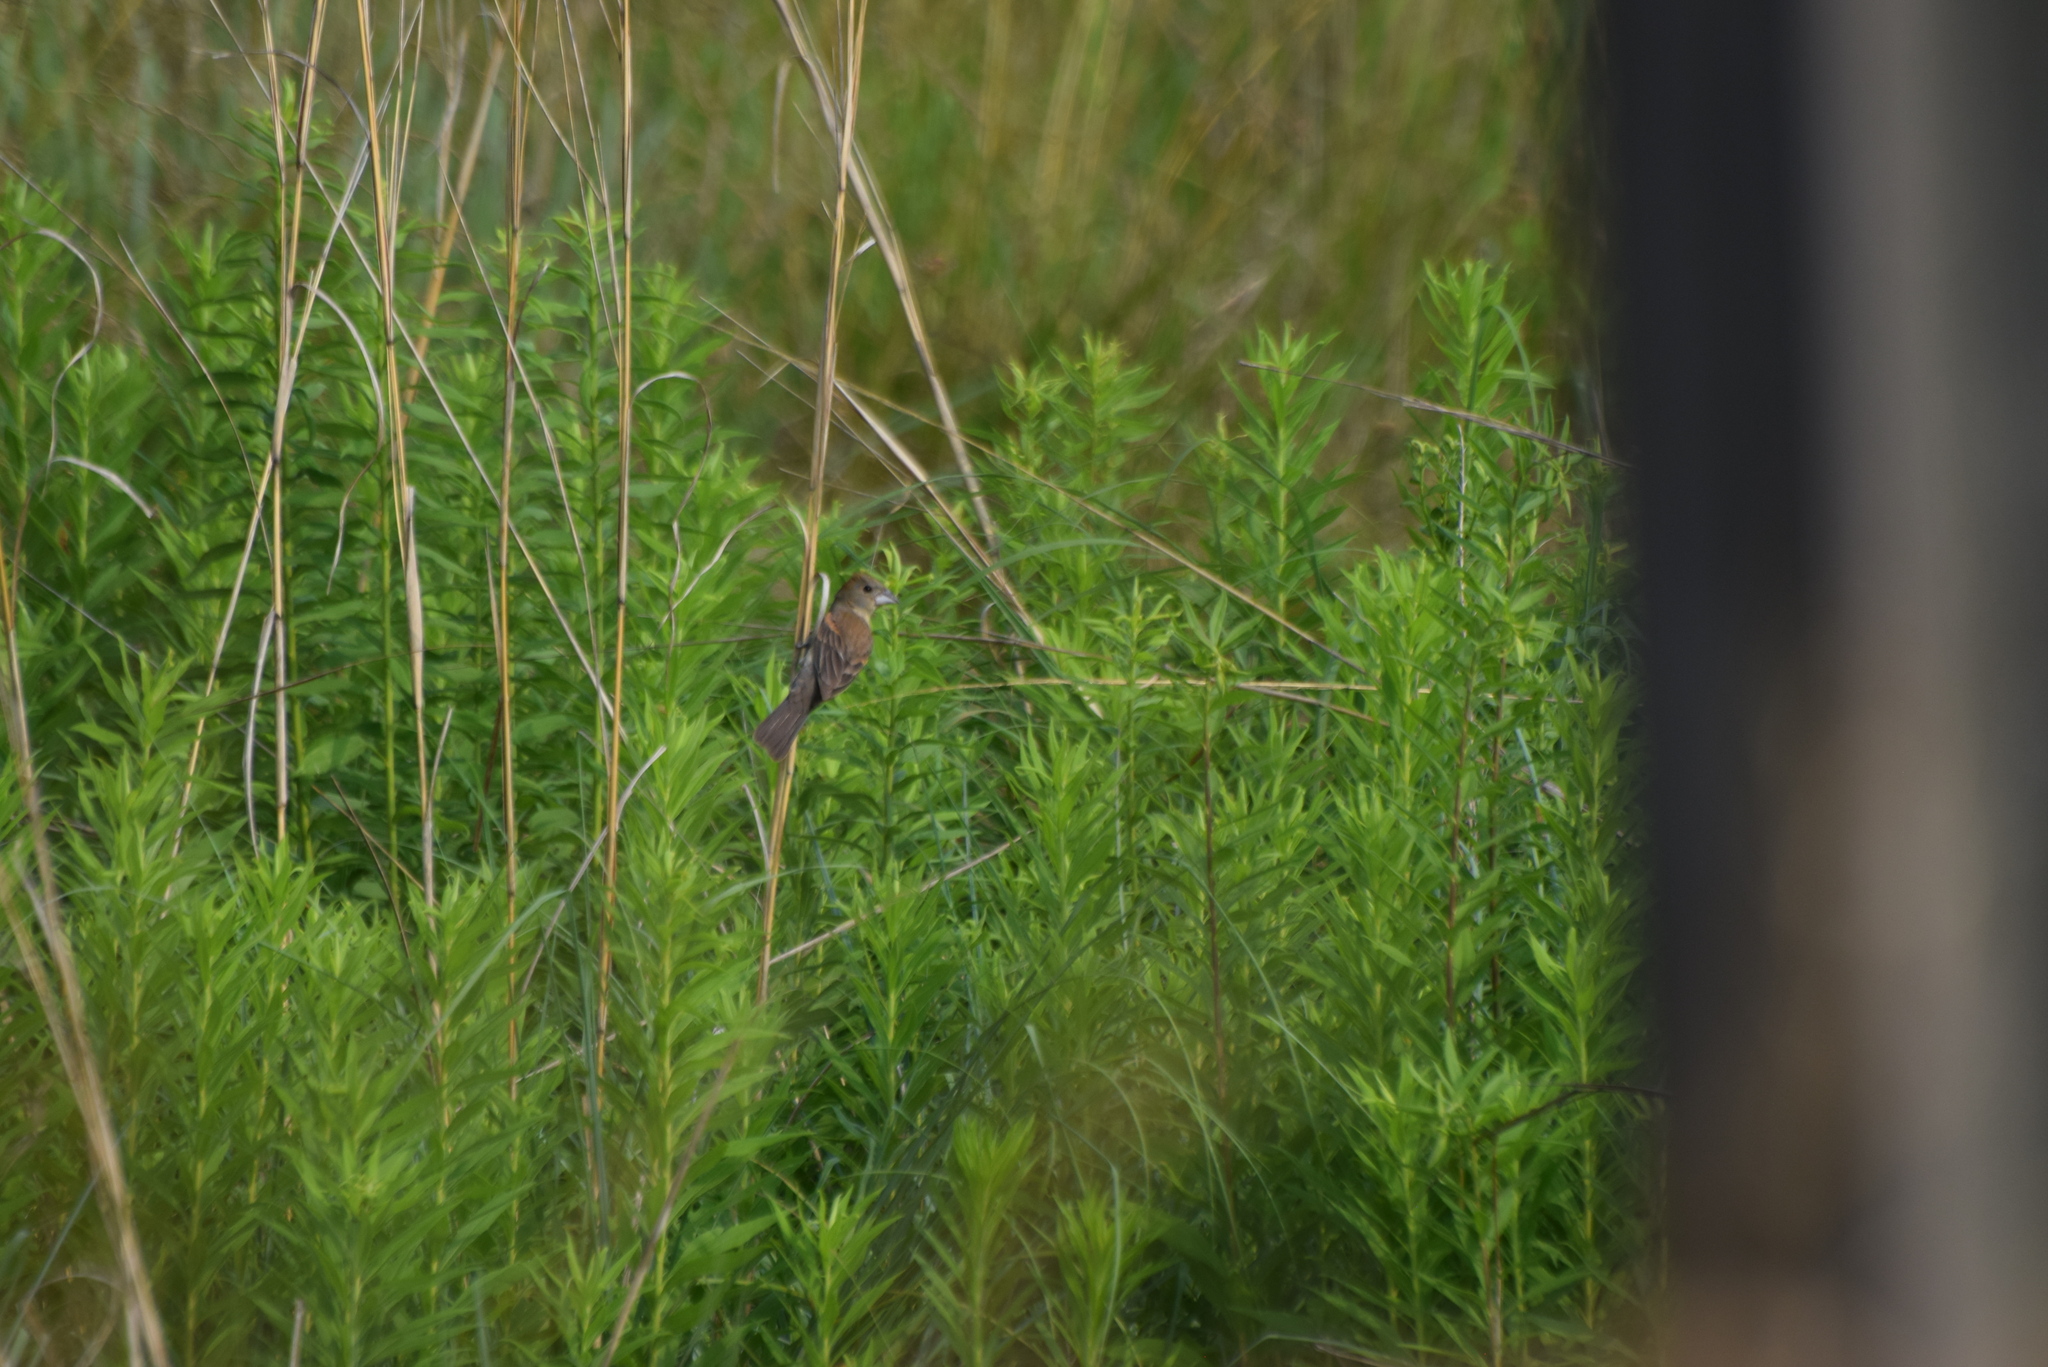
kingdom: Animalia
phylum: Chordata
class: Aves
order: Passeriformes
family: Cardinalidae
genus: Passerina
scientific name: Passerina caerulea
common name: Blue grosbeak
